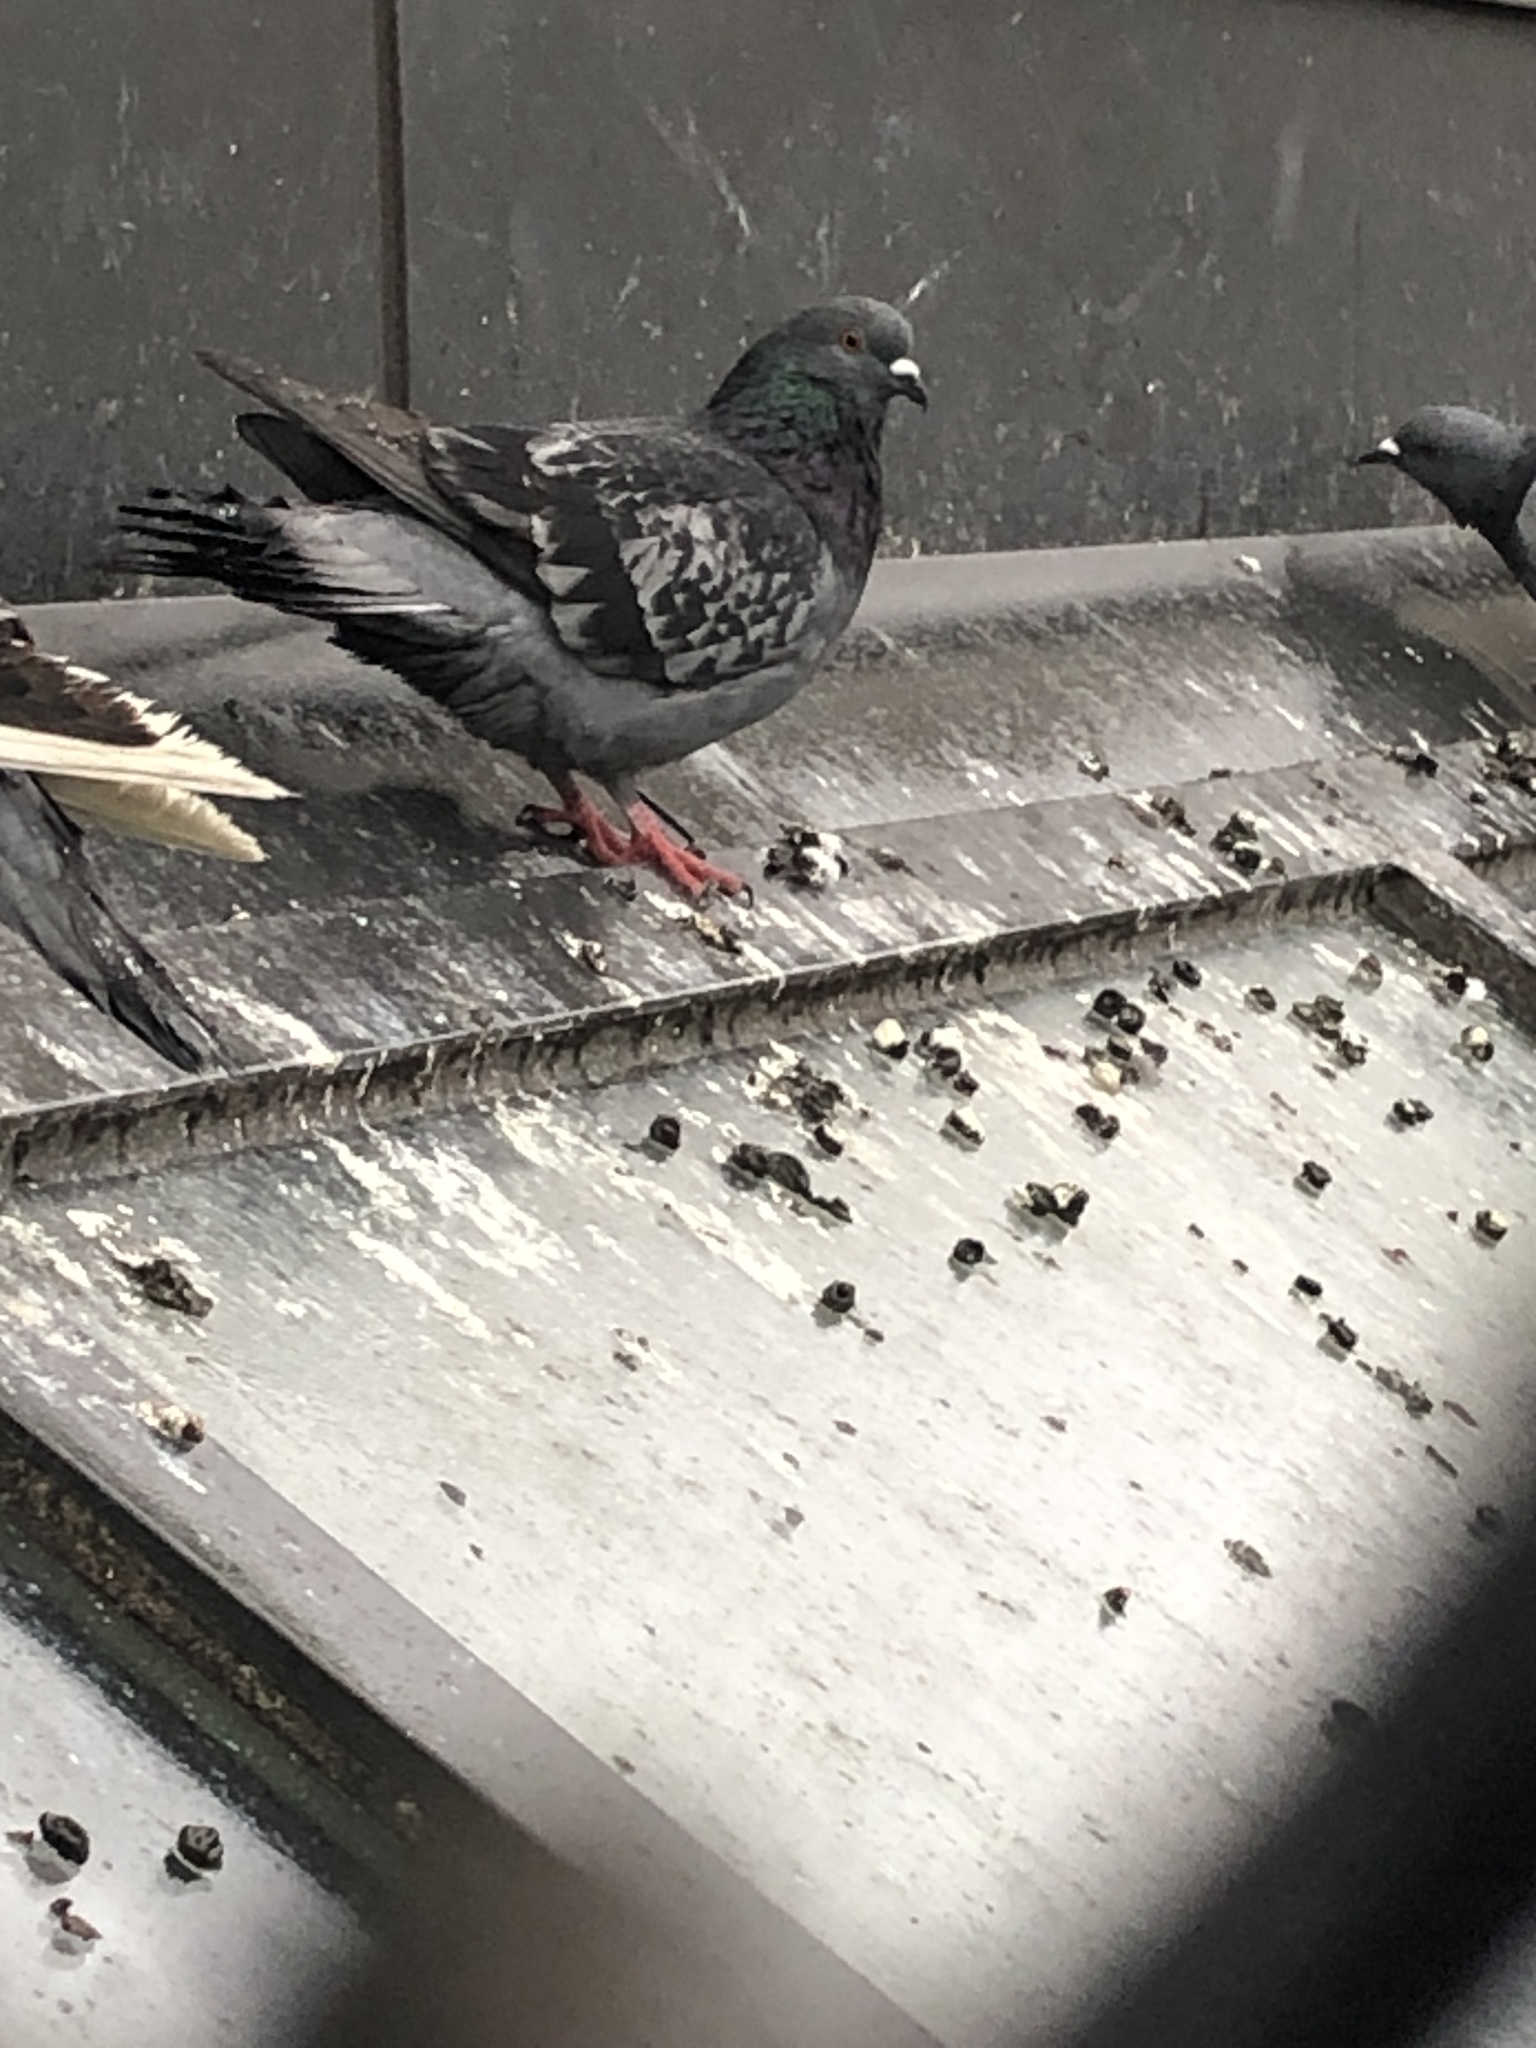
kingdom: Animalia
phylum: Chordata
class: Aves
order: Columbiformes
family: Columbidae
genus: Columba
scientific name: Columba livia
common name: Rock pigeon
